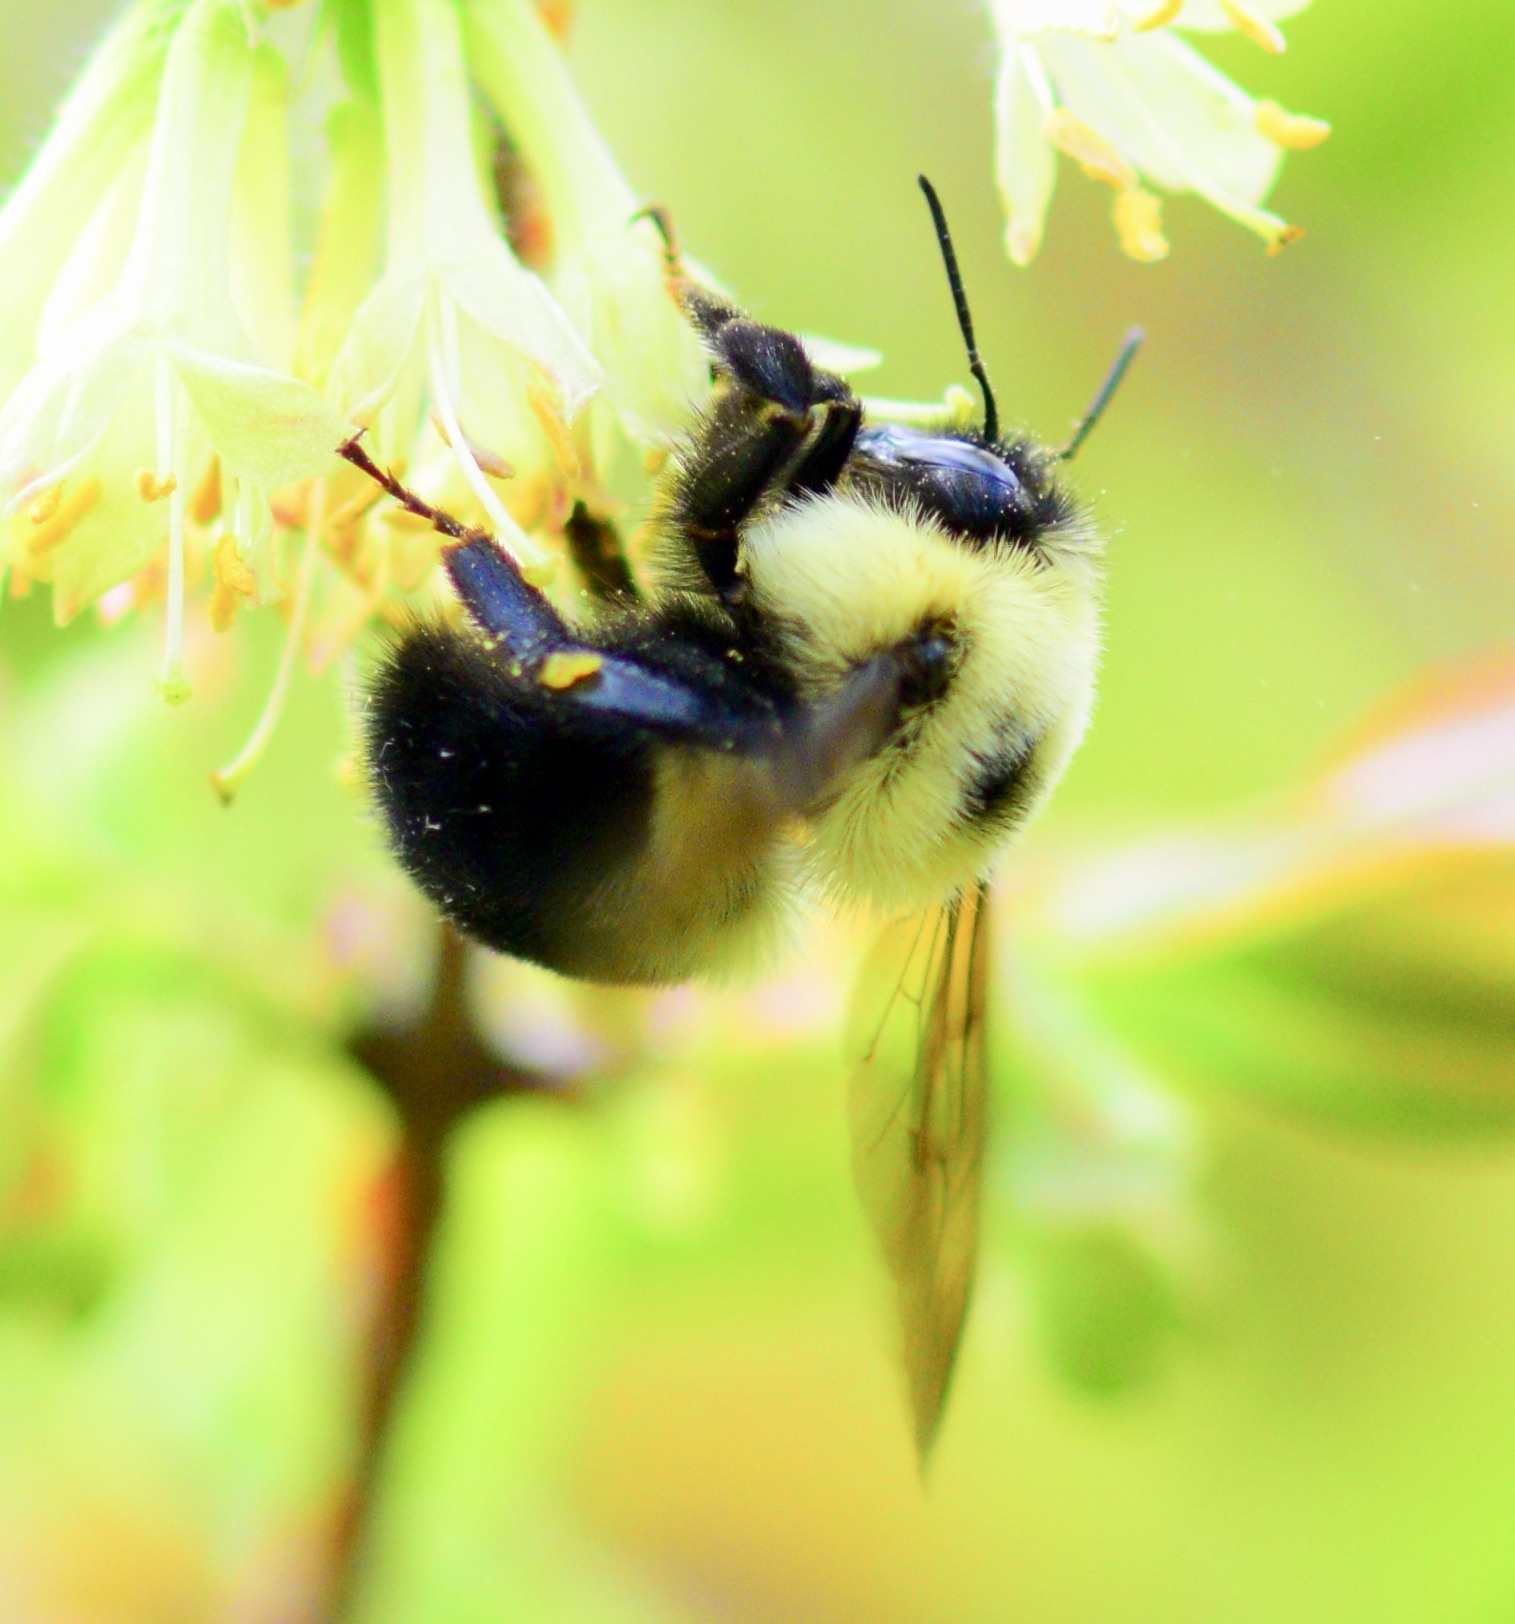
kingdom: Animalia
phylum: Arthropoda
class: Insecta
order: Hymenoptera
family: Apidae
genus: Bombus
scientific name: Bombus bimaculatus
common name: Two-spotted bumble bee
